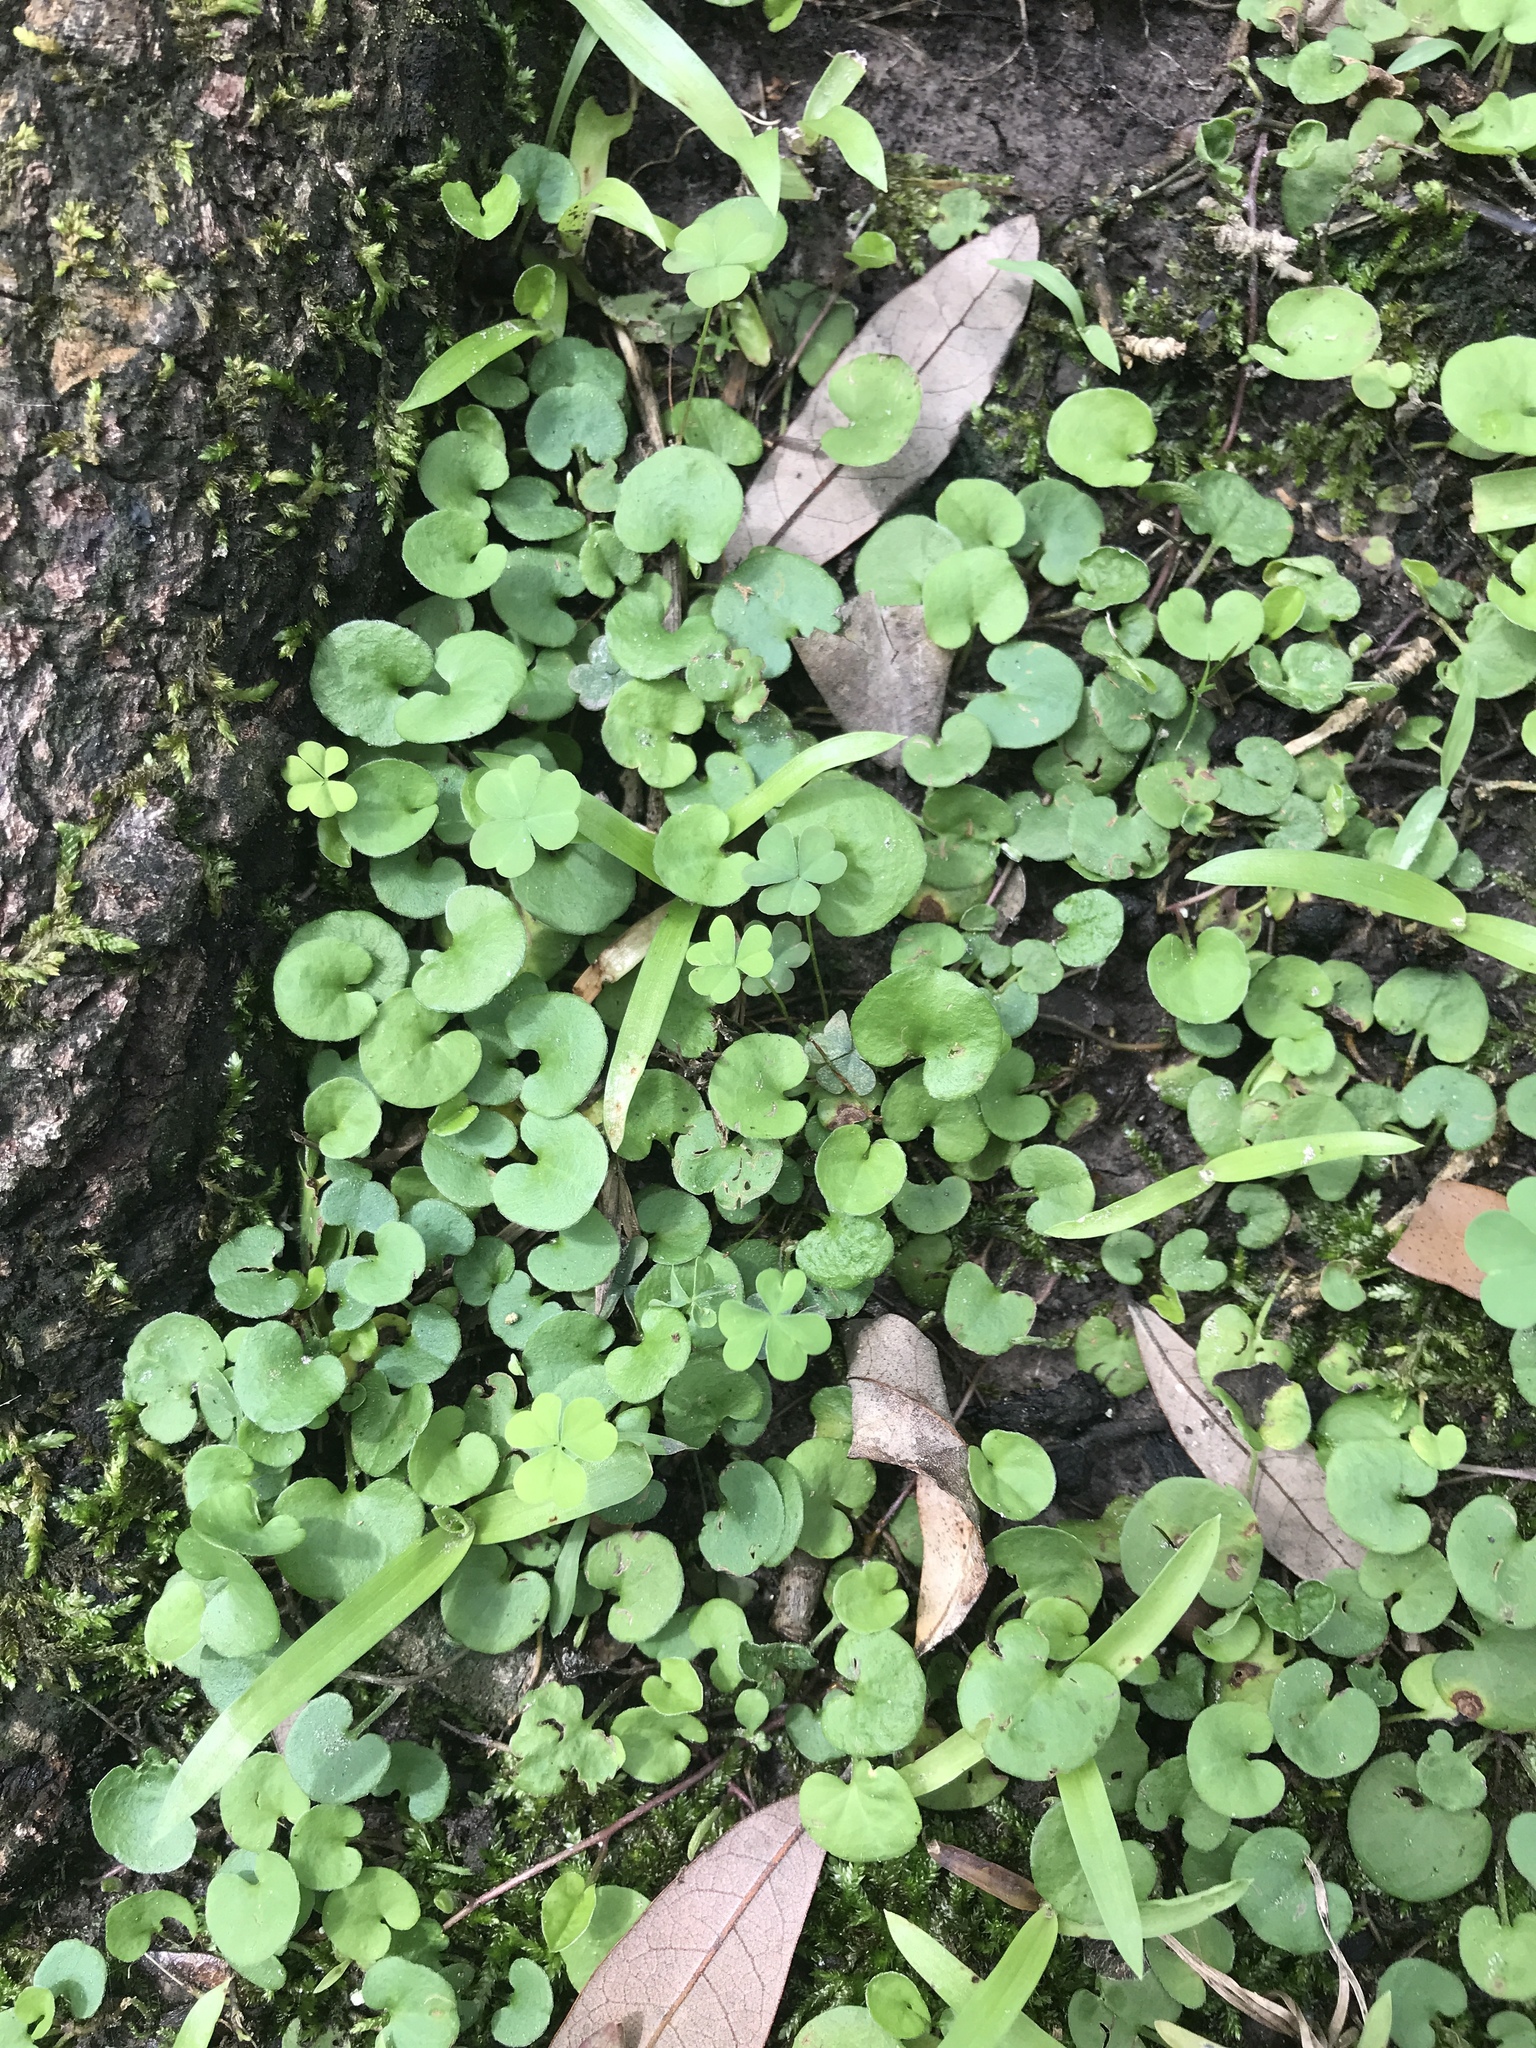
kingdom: Plantae
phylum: Tracheophyta
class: Magnoliopsida
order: Solanales
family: Convolvulaceae
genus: Dichondra
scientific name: Dichondra carolinensis
